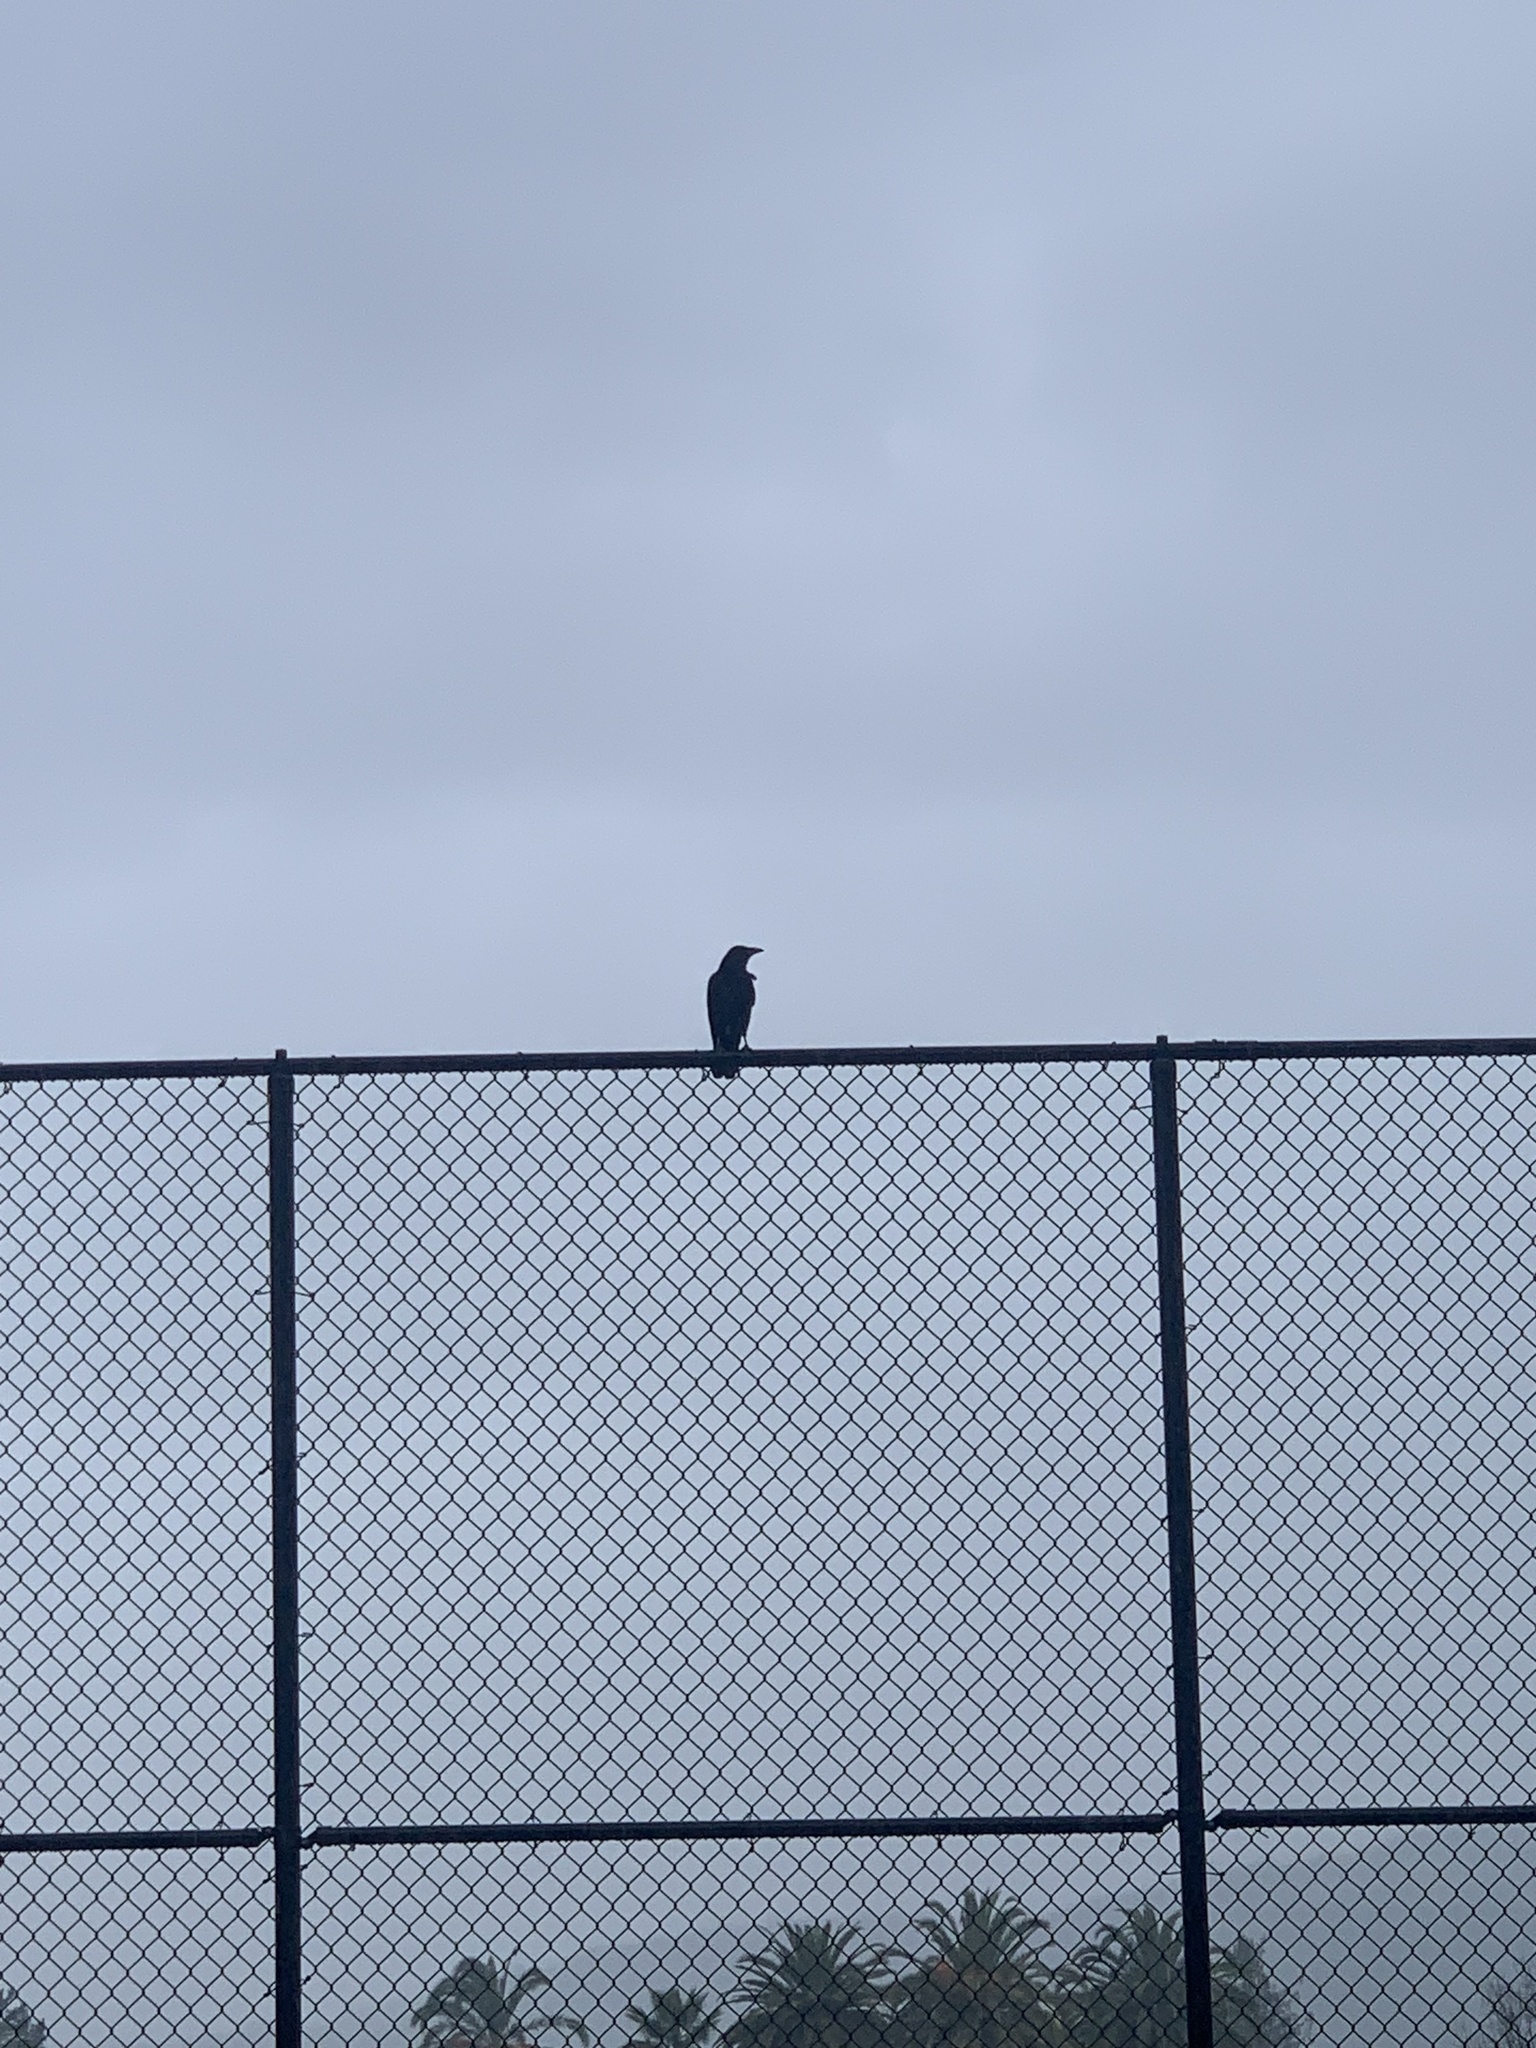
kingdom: Animalia
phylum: Chordata
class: Aves
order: Passeriformes
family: Corvidae
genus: Corvus
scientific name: Corvus brachyrhynchos
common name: American crow
